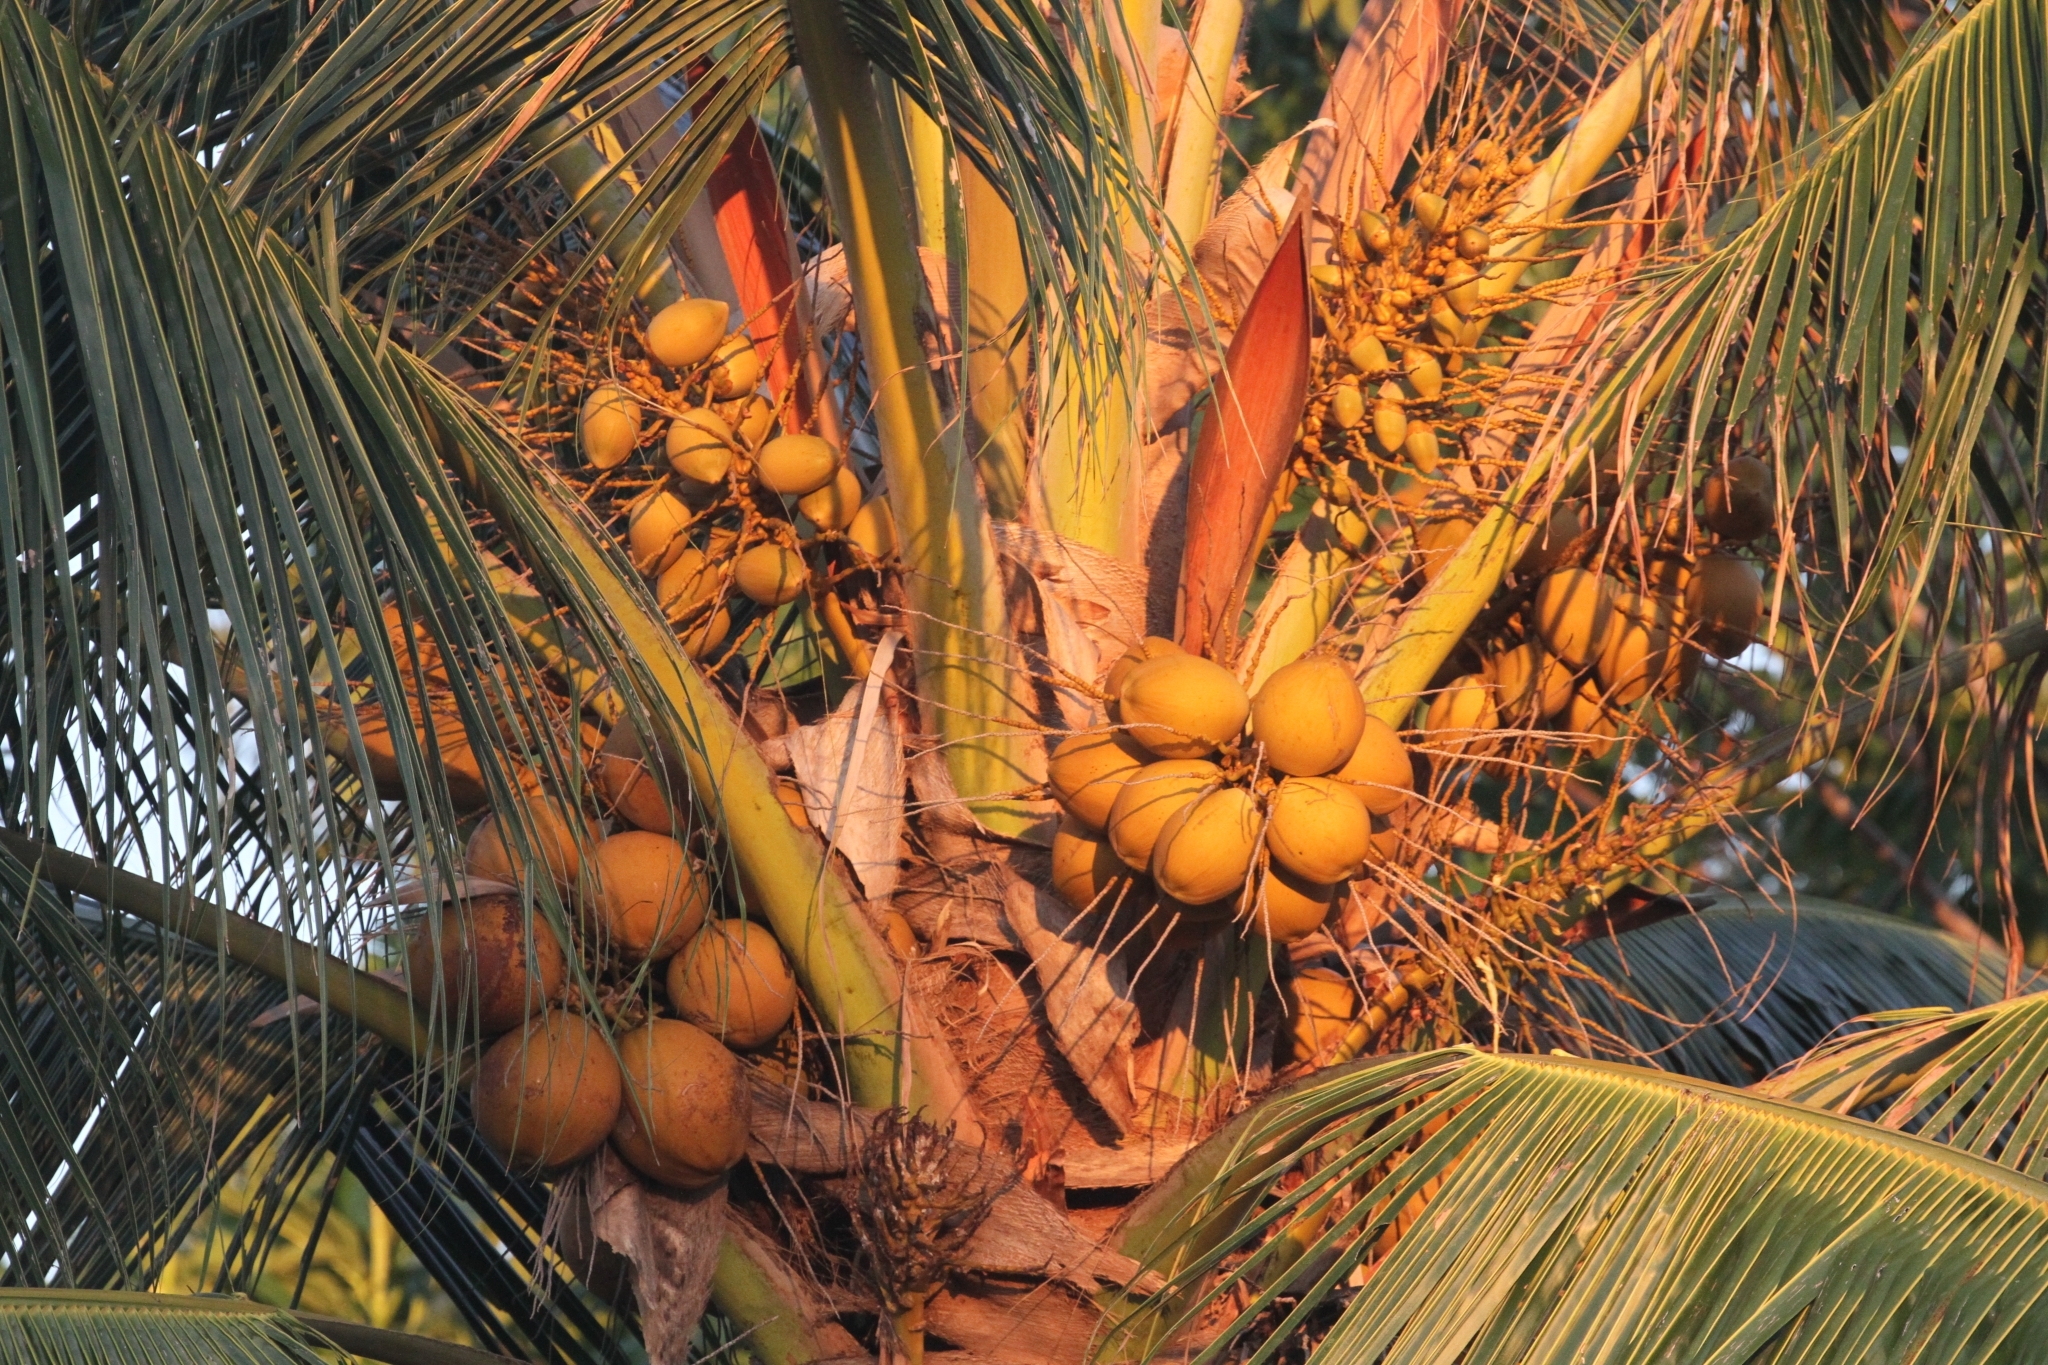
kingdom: Plantae
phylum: Tracheophyta
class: Liliopsida
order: Arecales
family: Arecaceae
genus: Cocos
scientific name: Cocos nucifera
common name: Coconut palm
